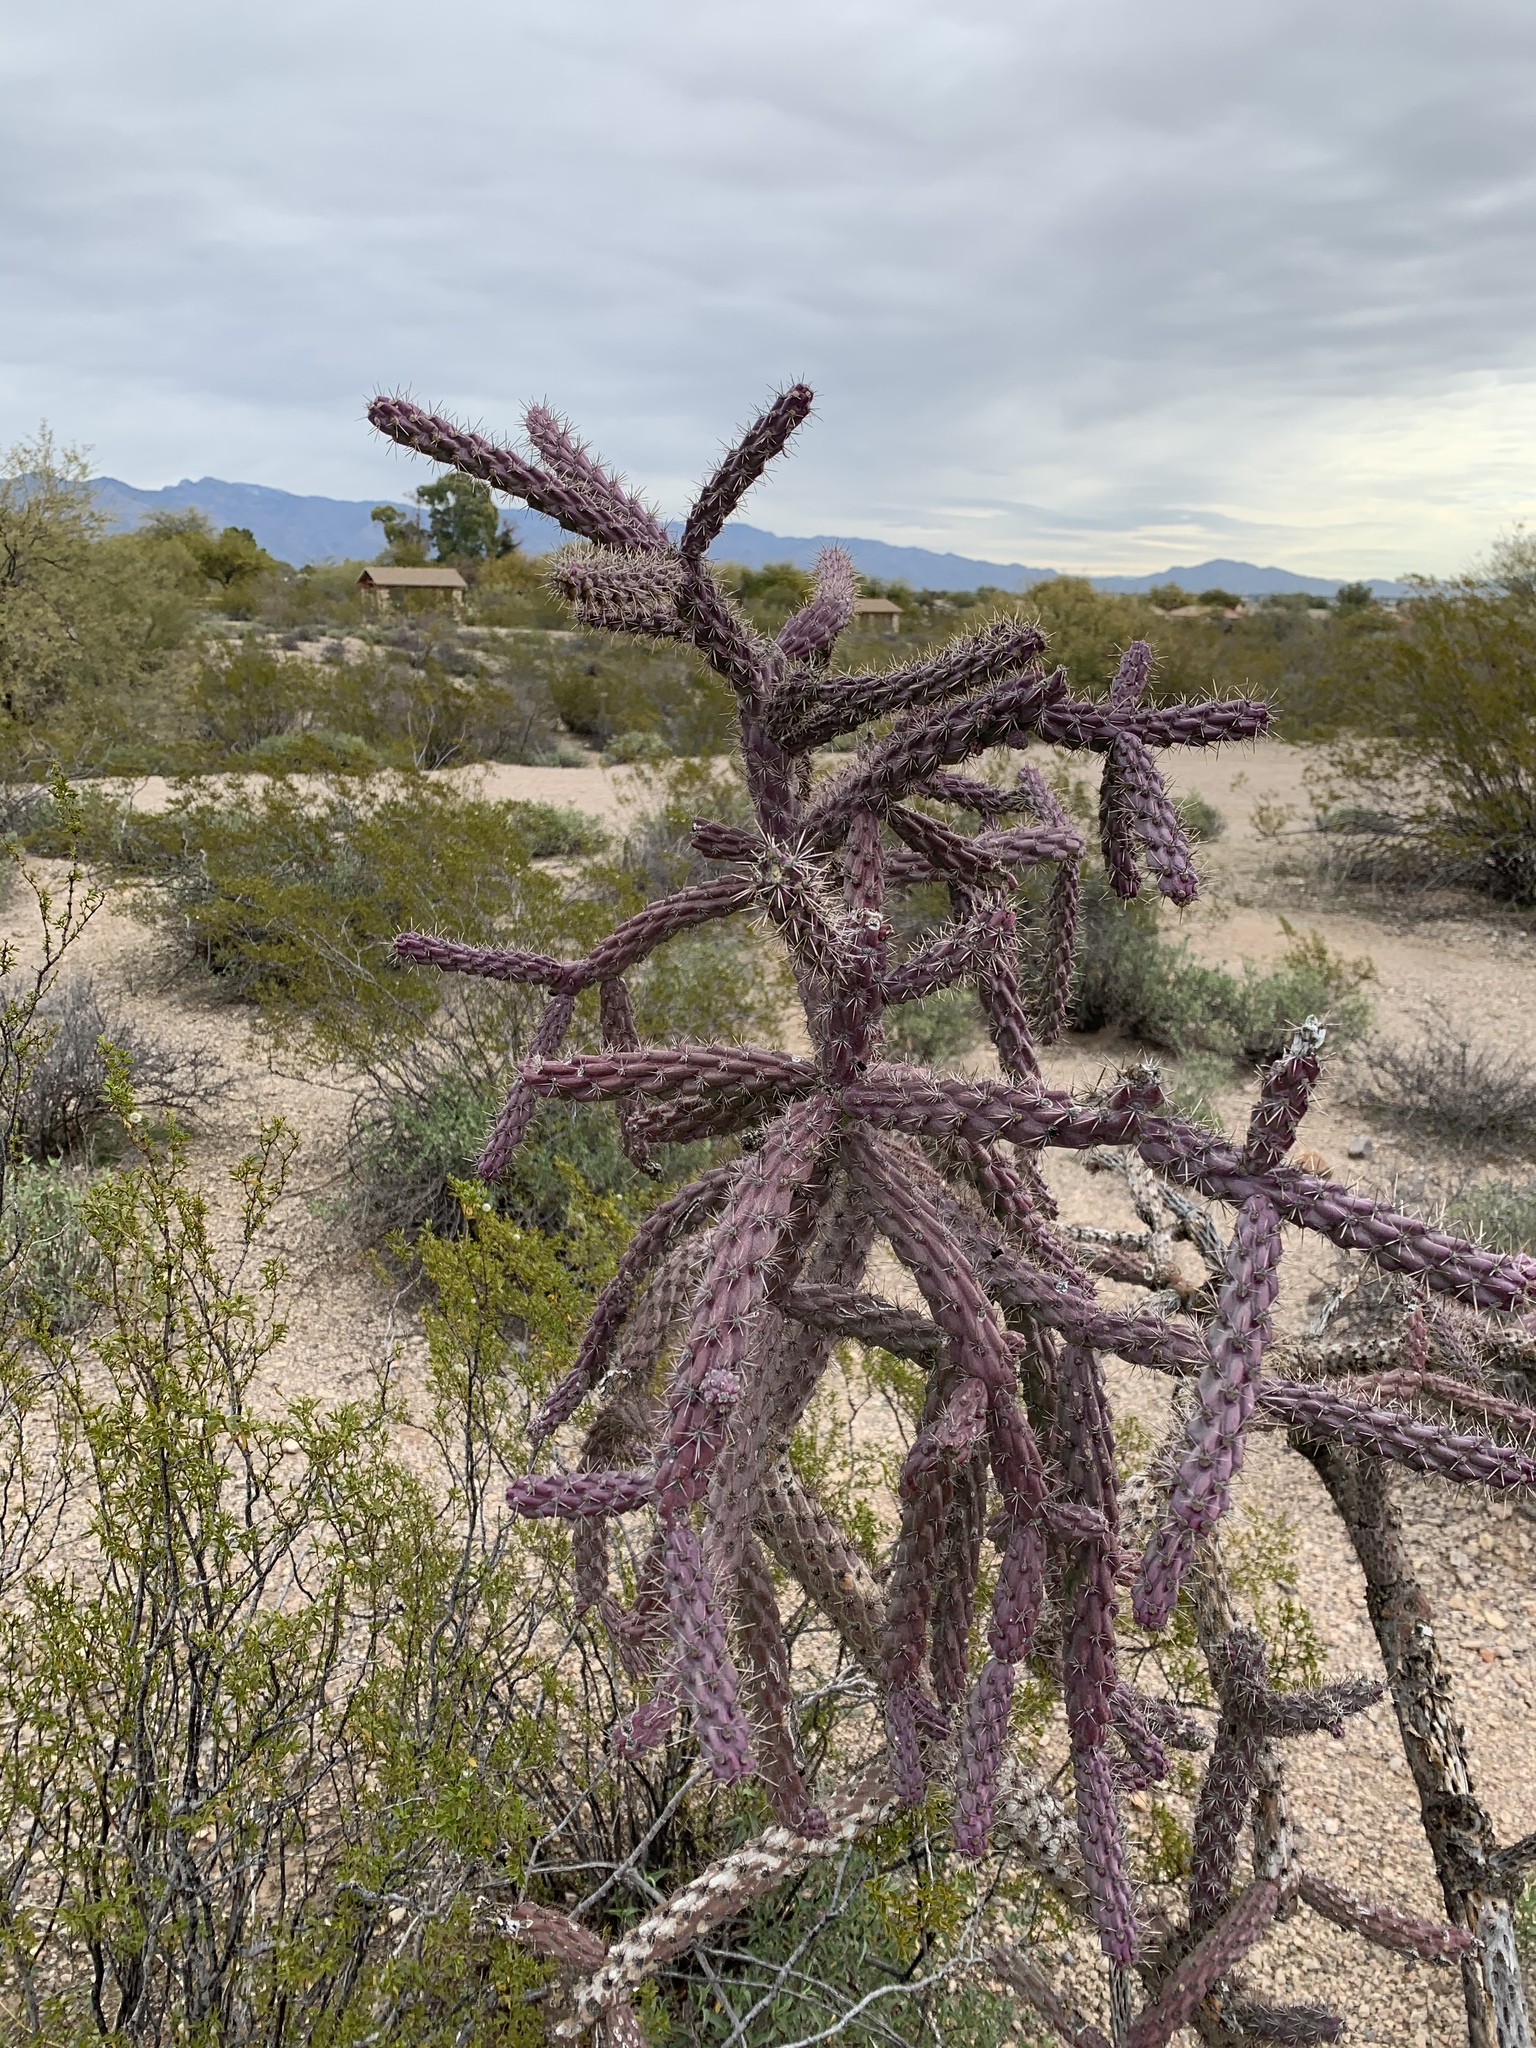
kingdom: Plantae
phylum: Tracheophyta
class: Magnoliopsida
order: Caryophyllales
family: Cactaceae
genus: Cylindropuntia
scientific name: Cylindropuntia thurberi
